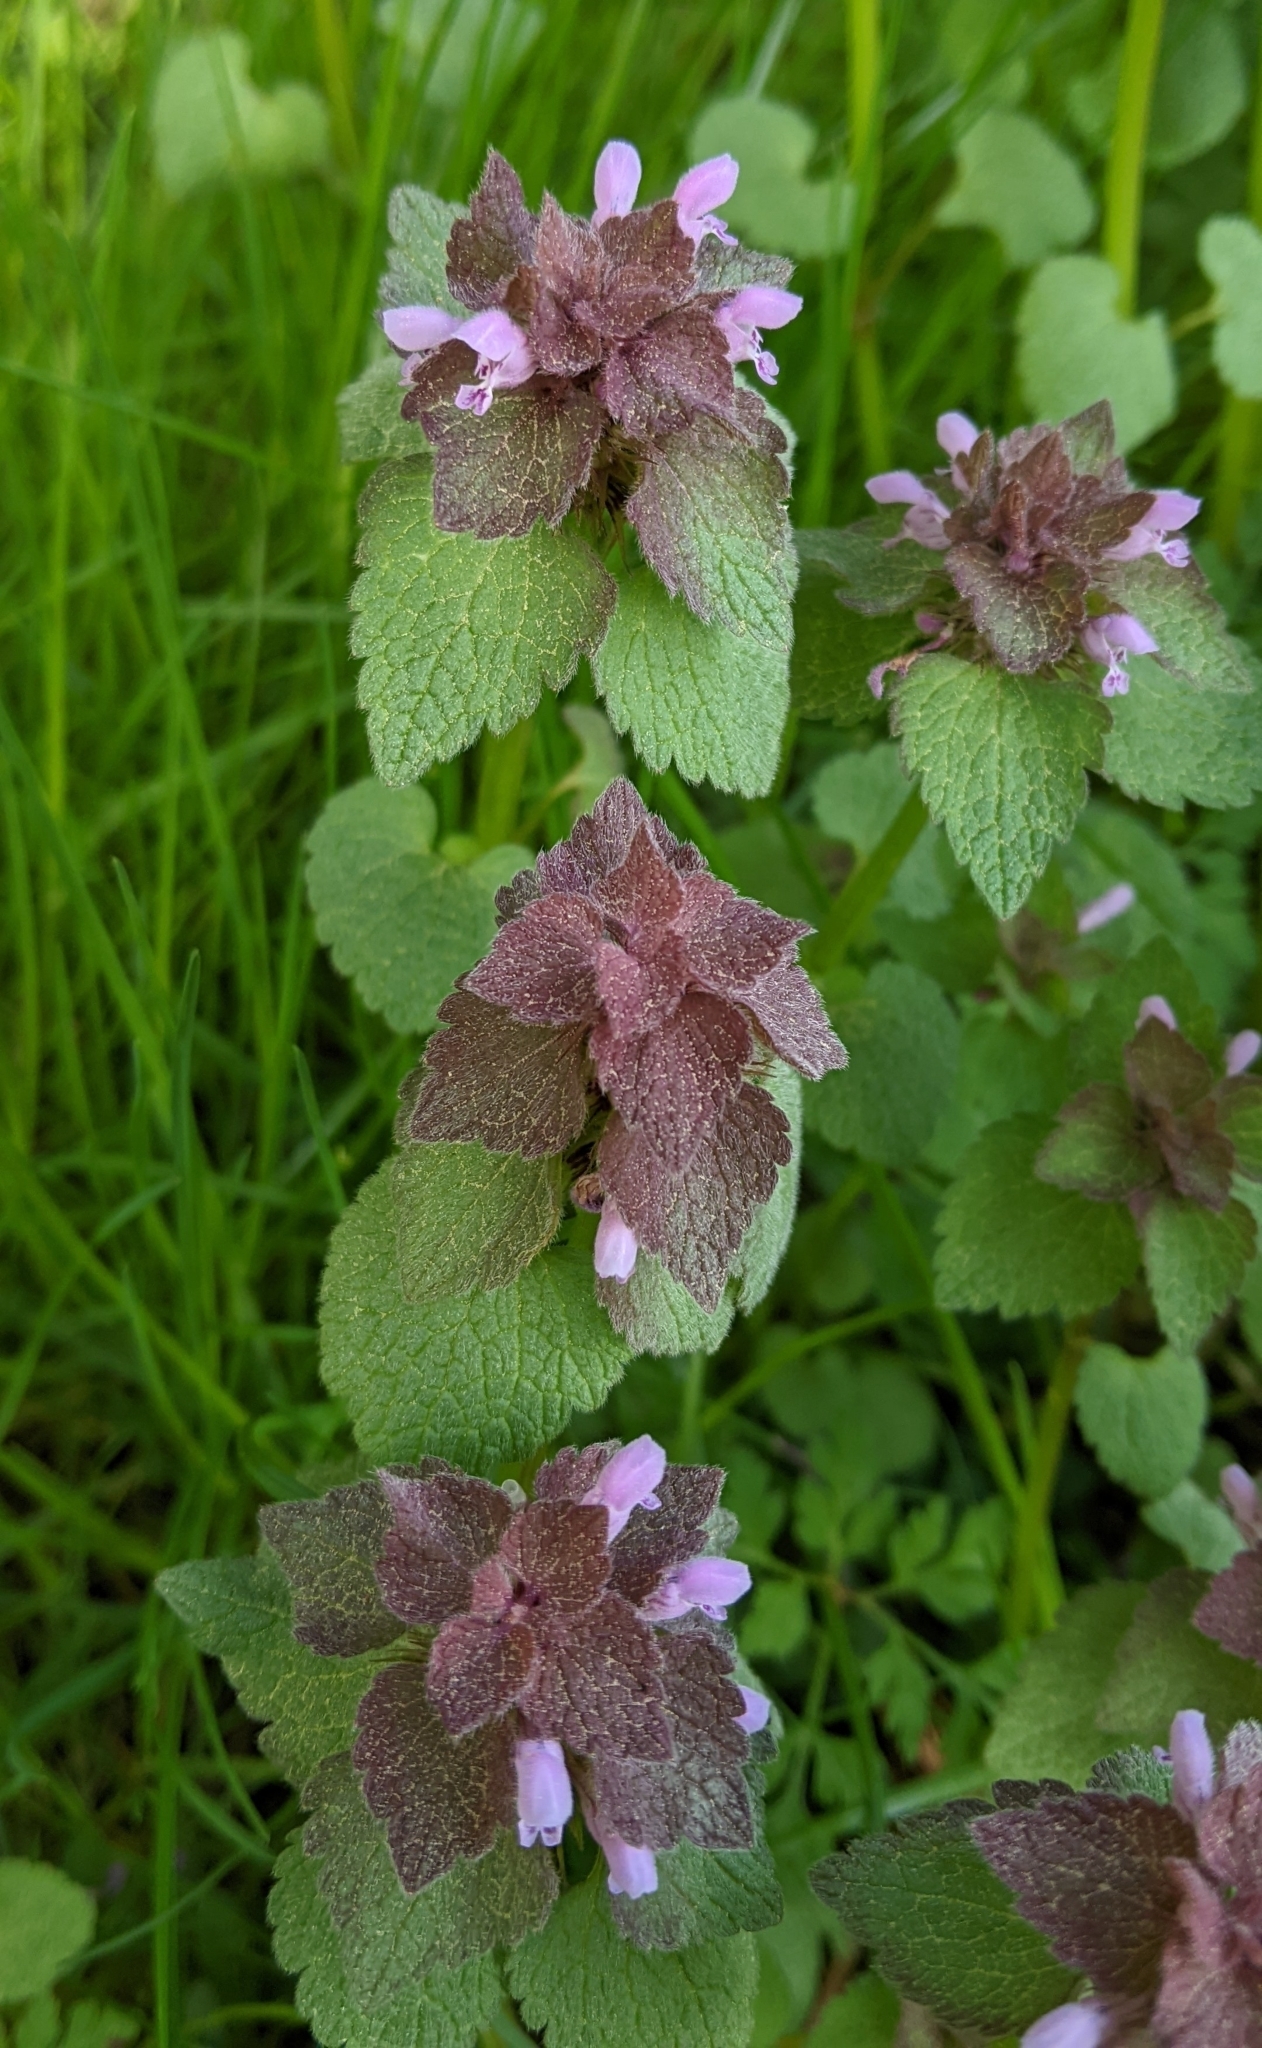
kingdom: Plantae
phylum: Tracheophyta
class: Magnoliopsida
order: Lamiales
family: Lamiaceae
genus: Lamium
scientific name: Lamium purpureum
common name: Red dead-nettle
